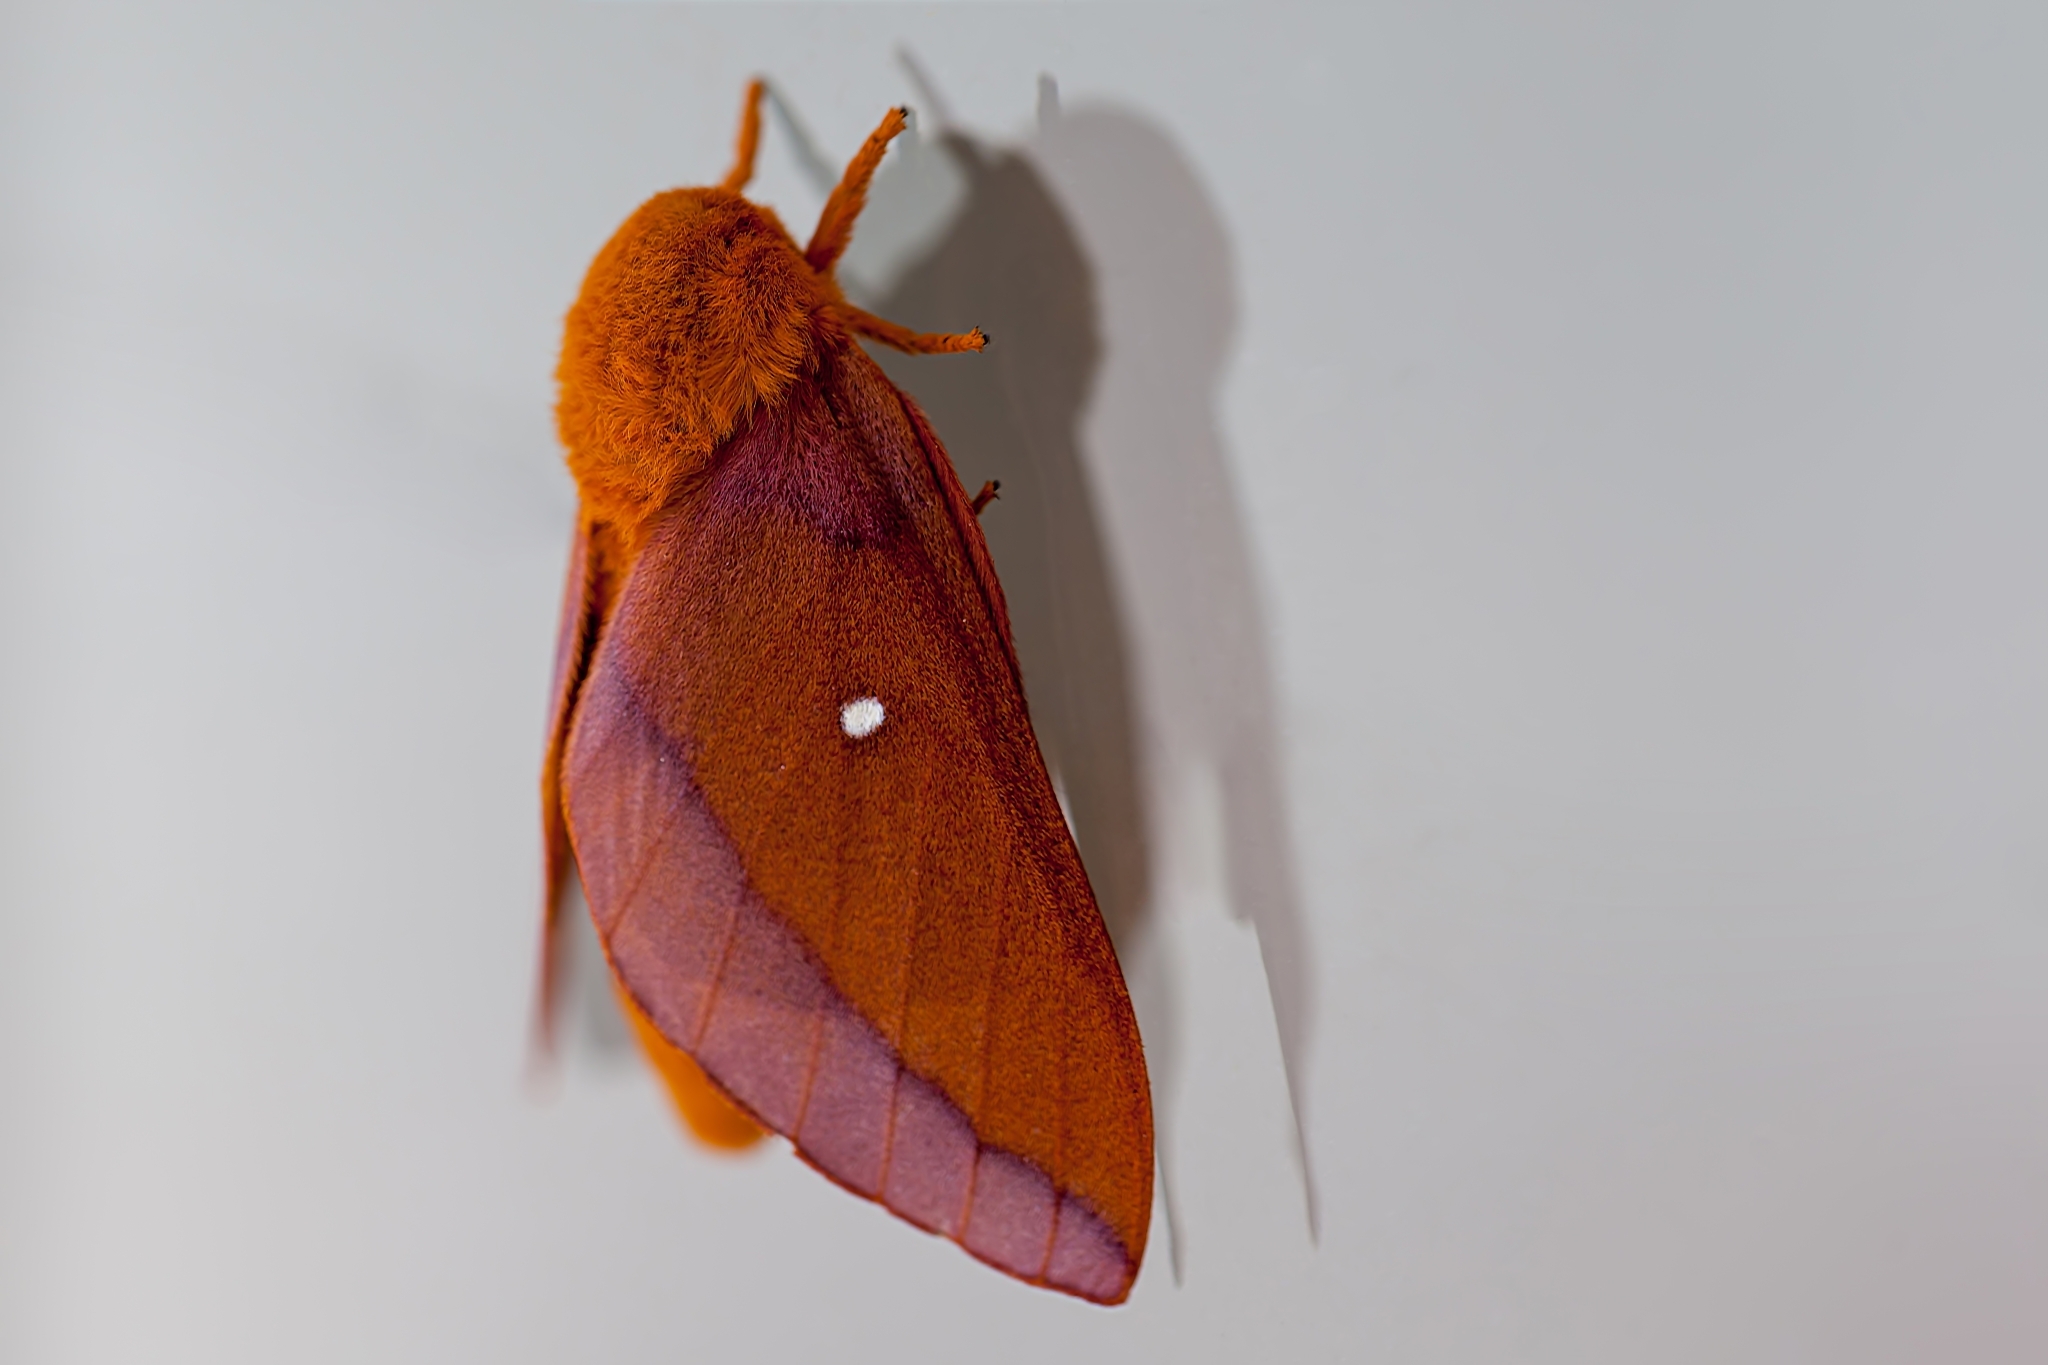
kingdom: Animalia
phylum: Arthropoda
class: Insecta
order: Lepidoptera
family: Saturniidae
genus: Anisota
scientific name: Anisota virginiensis
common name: Pink striped oakworm moth
